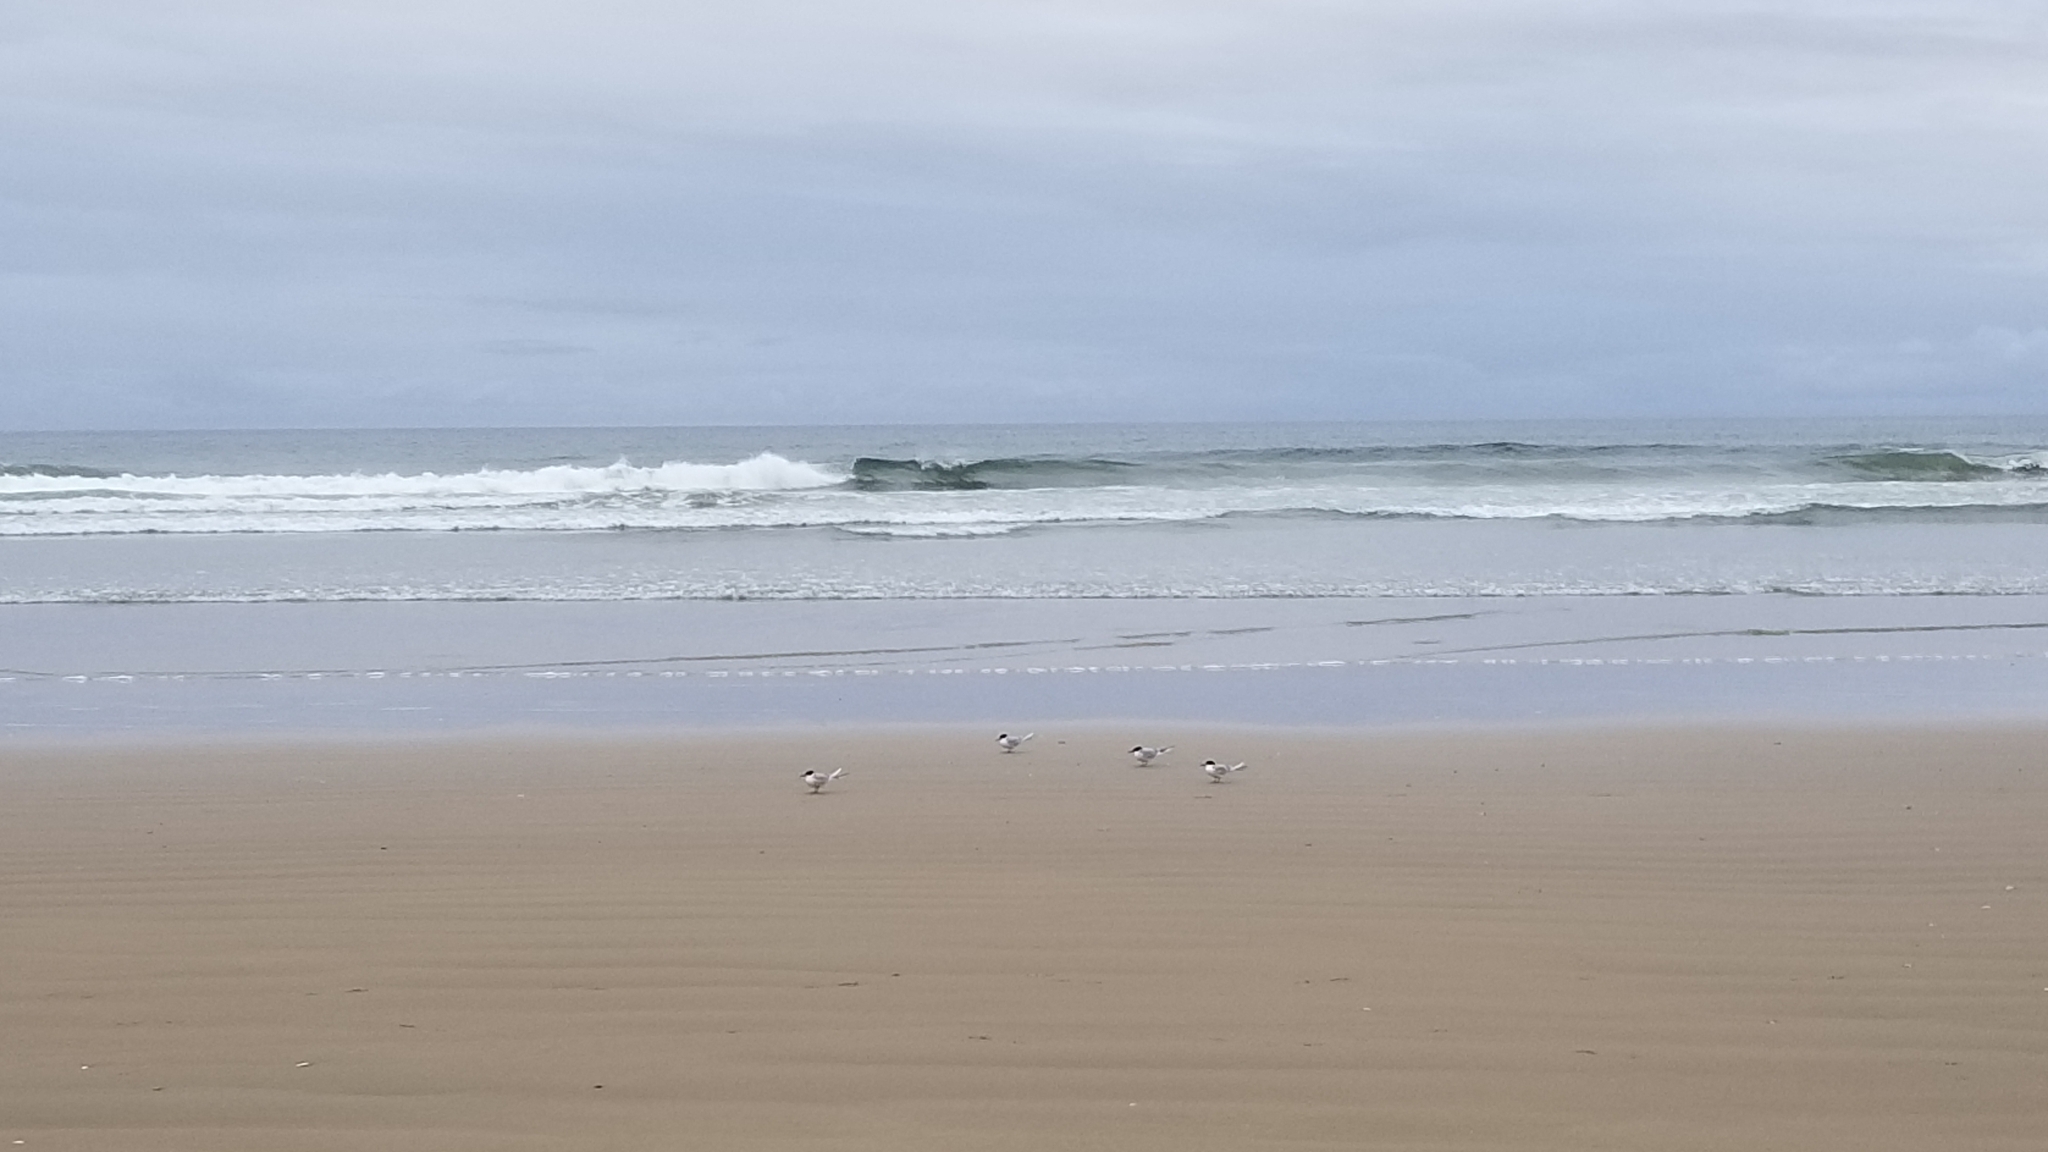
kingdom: Animalia
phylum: Chordata
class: Aves
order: Charadriiformes
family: Laridae
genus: Sterna
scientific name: Sterna forsteri
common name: Forster's tern
